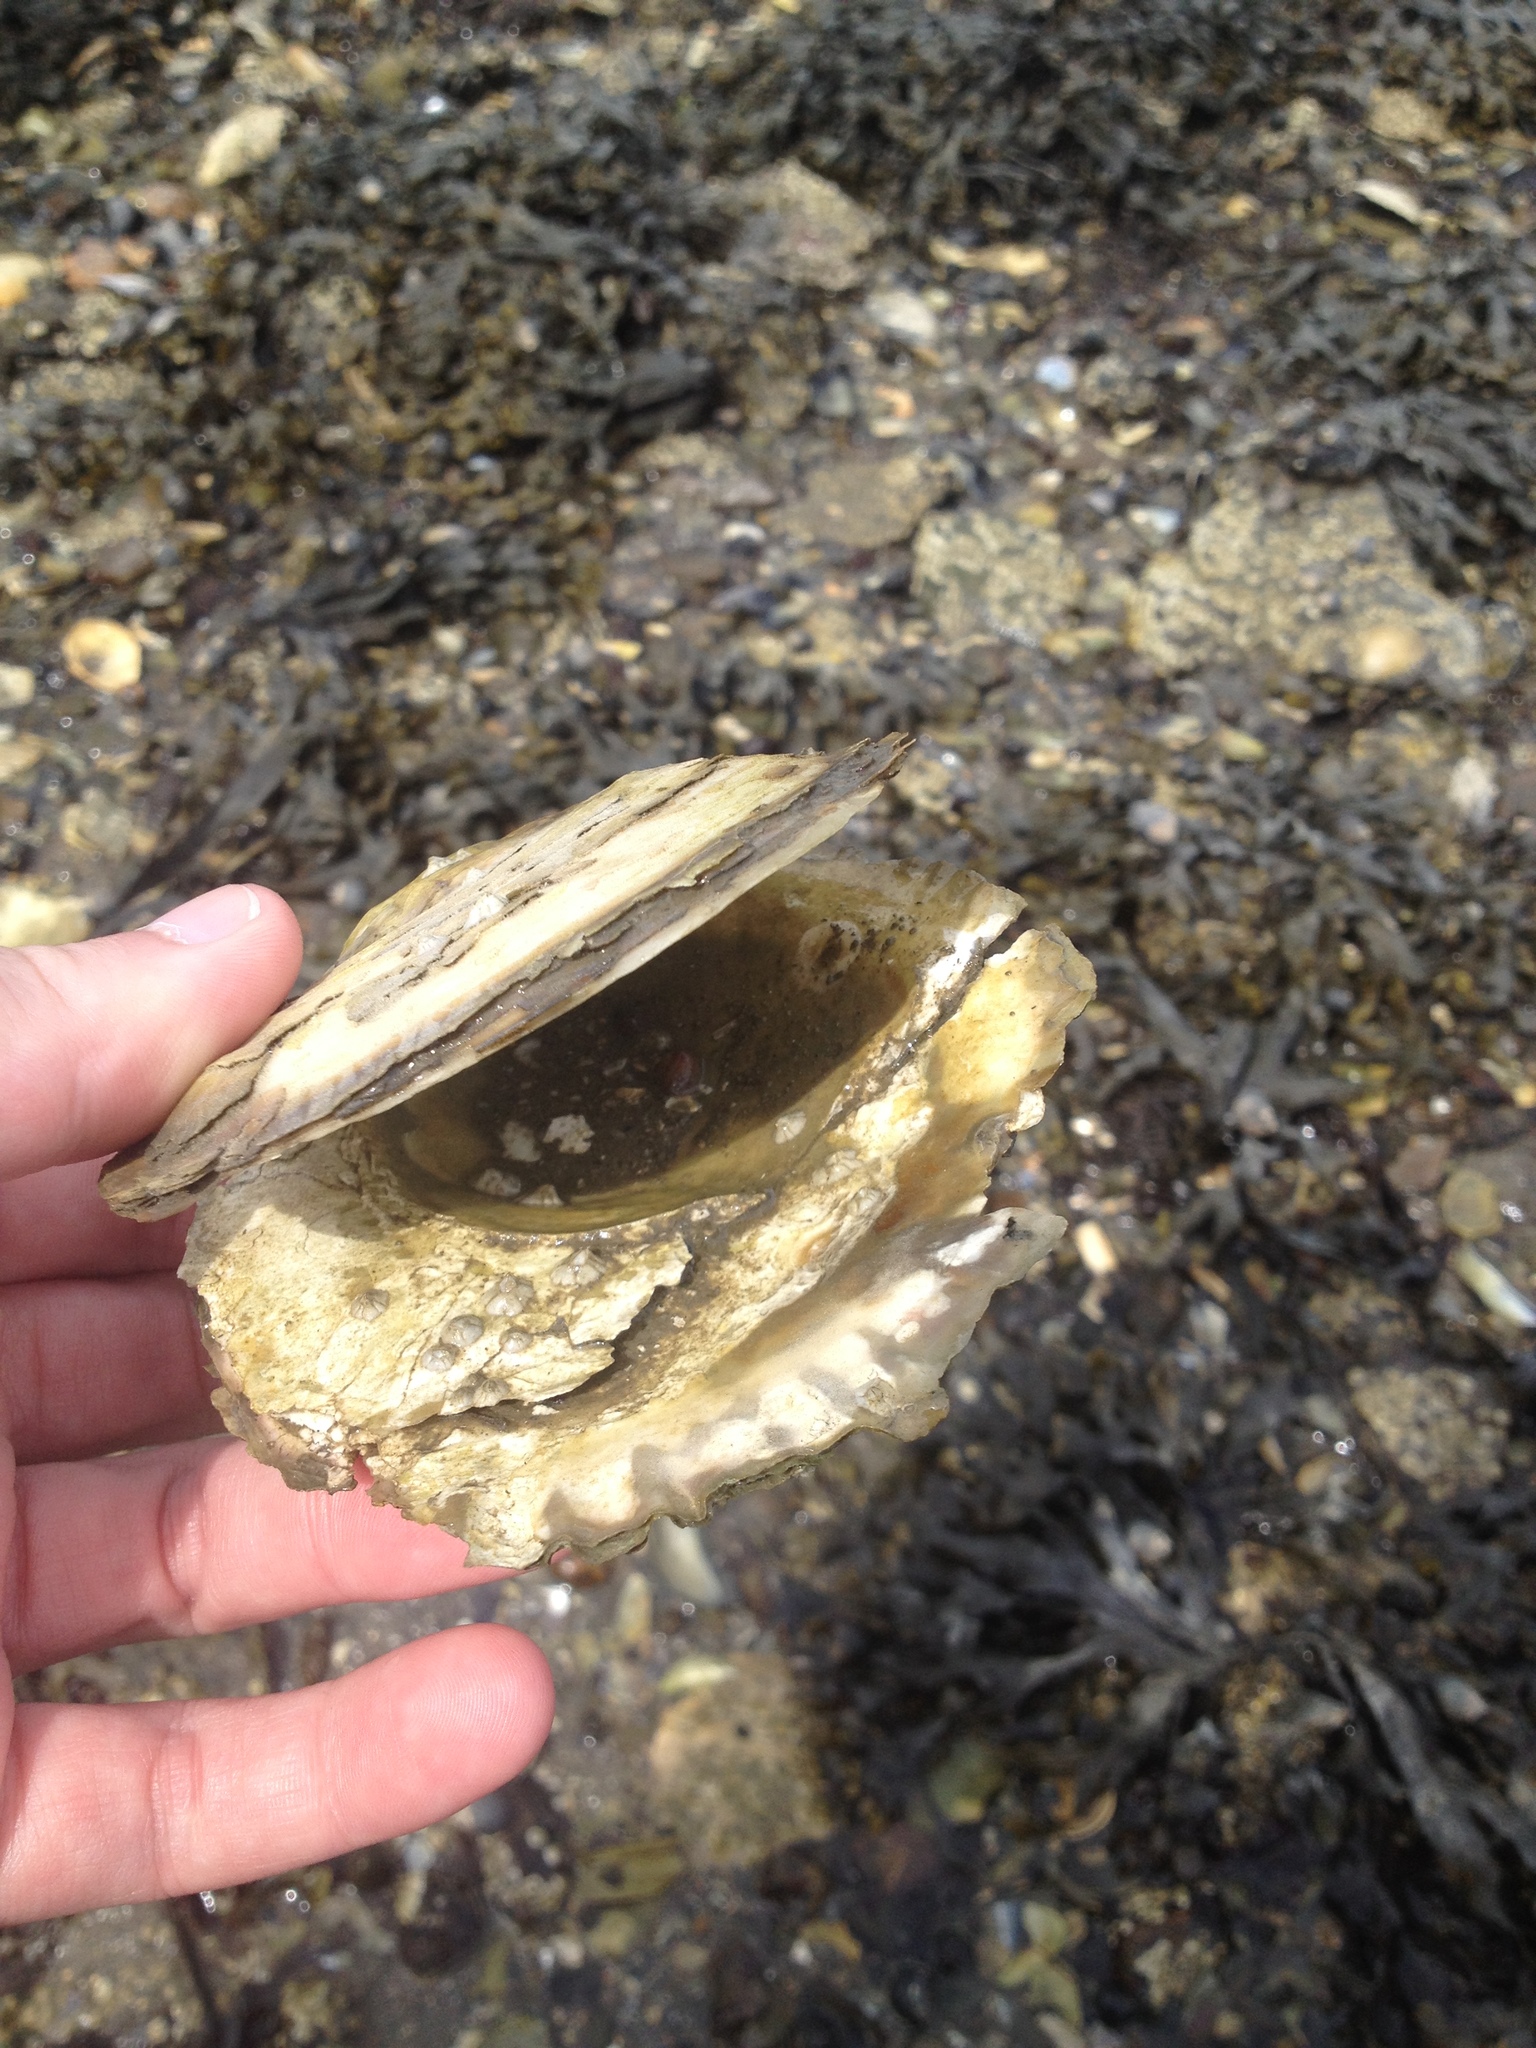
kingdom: Animalia
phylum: Mollusca
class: Bivalvia
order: Ostreida
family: Ostreidae
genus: Ostrea
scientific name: Ostrea edulis
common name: Flat oyster
